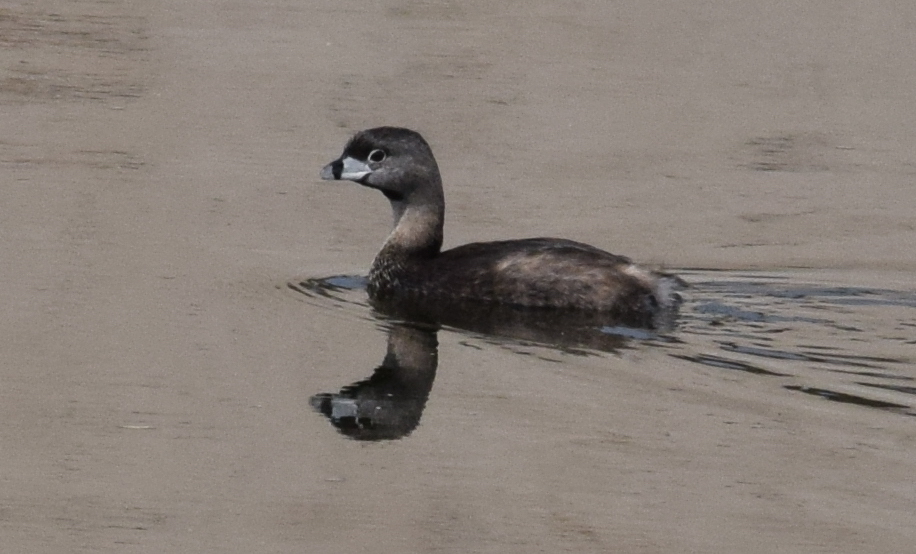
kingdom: Animalia
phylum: Chordata
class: Aves
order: Podicipediformes
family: Podicipedidae
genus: Podilymbus
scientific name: Podilymbus podiceps
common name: Pied-billed grebe
